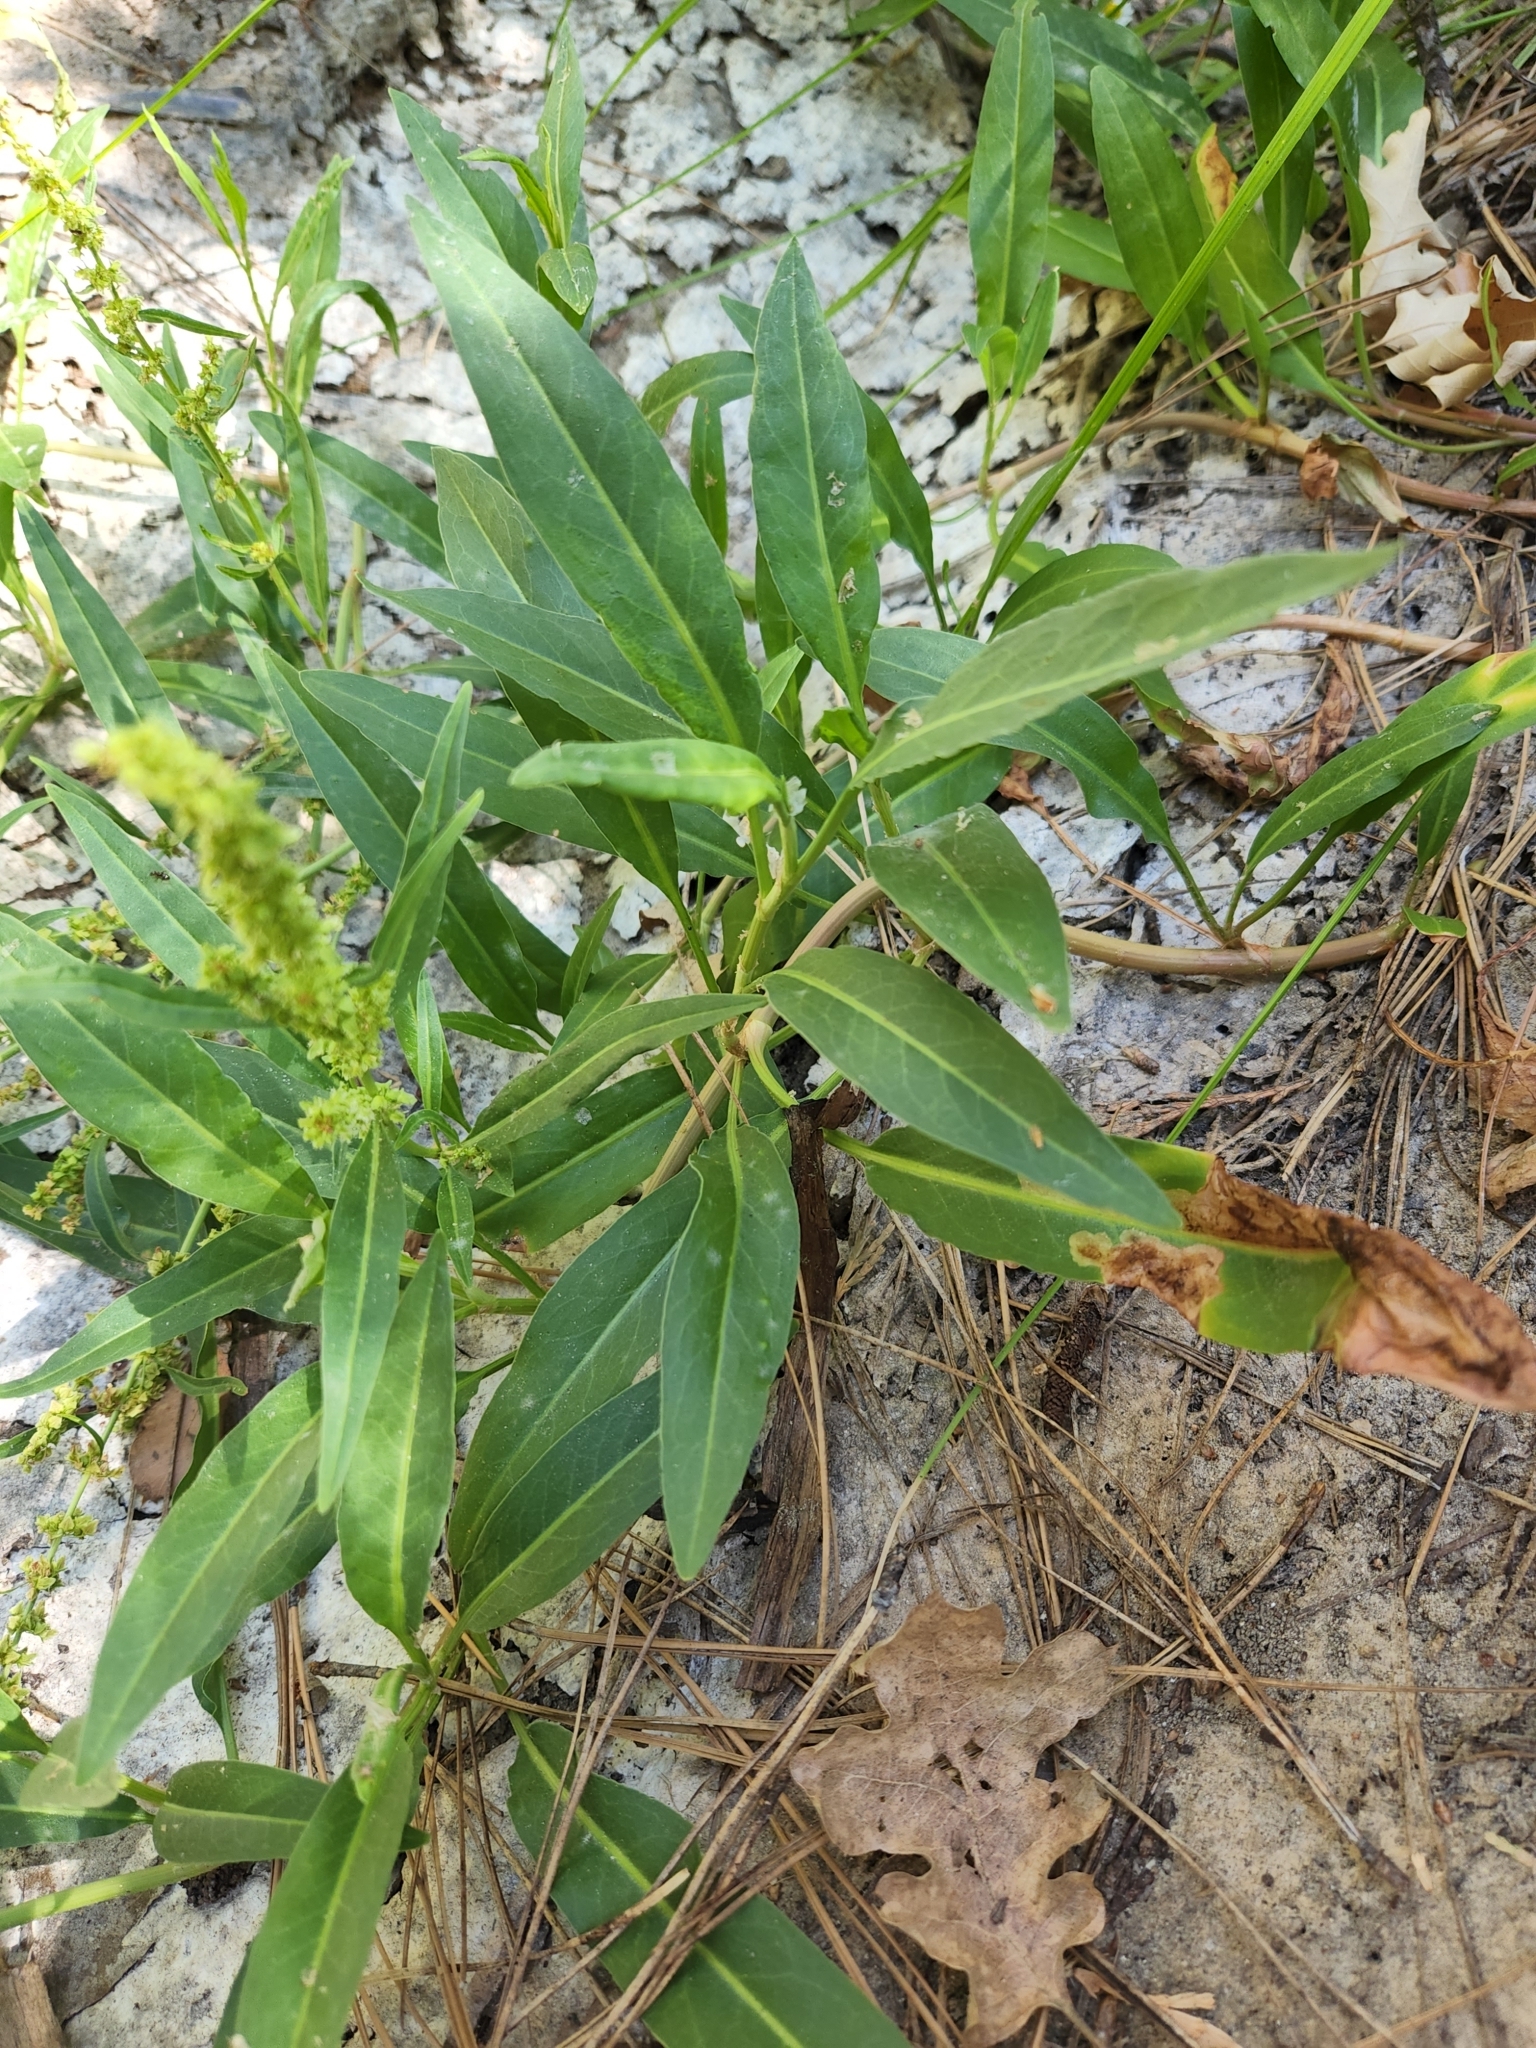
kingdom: Plantae
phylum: Tracheophyta
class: Magnoliopsida
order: Caryophyllales
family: Polygonaceae
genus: Rumex
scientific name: Rumex salicifolius
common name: Willow-leaved dock
